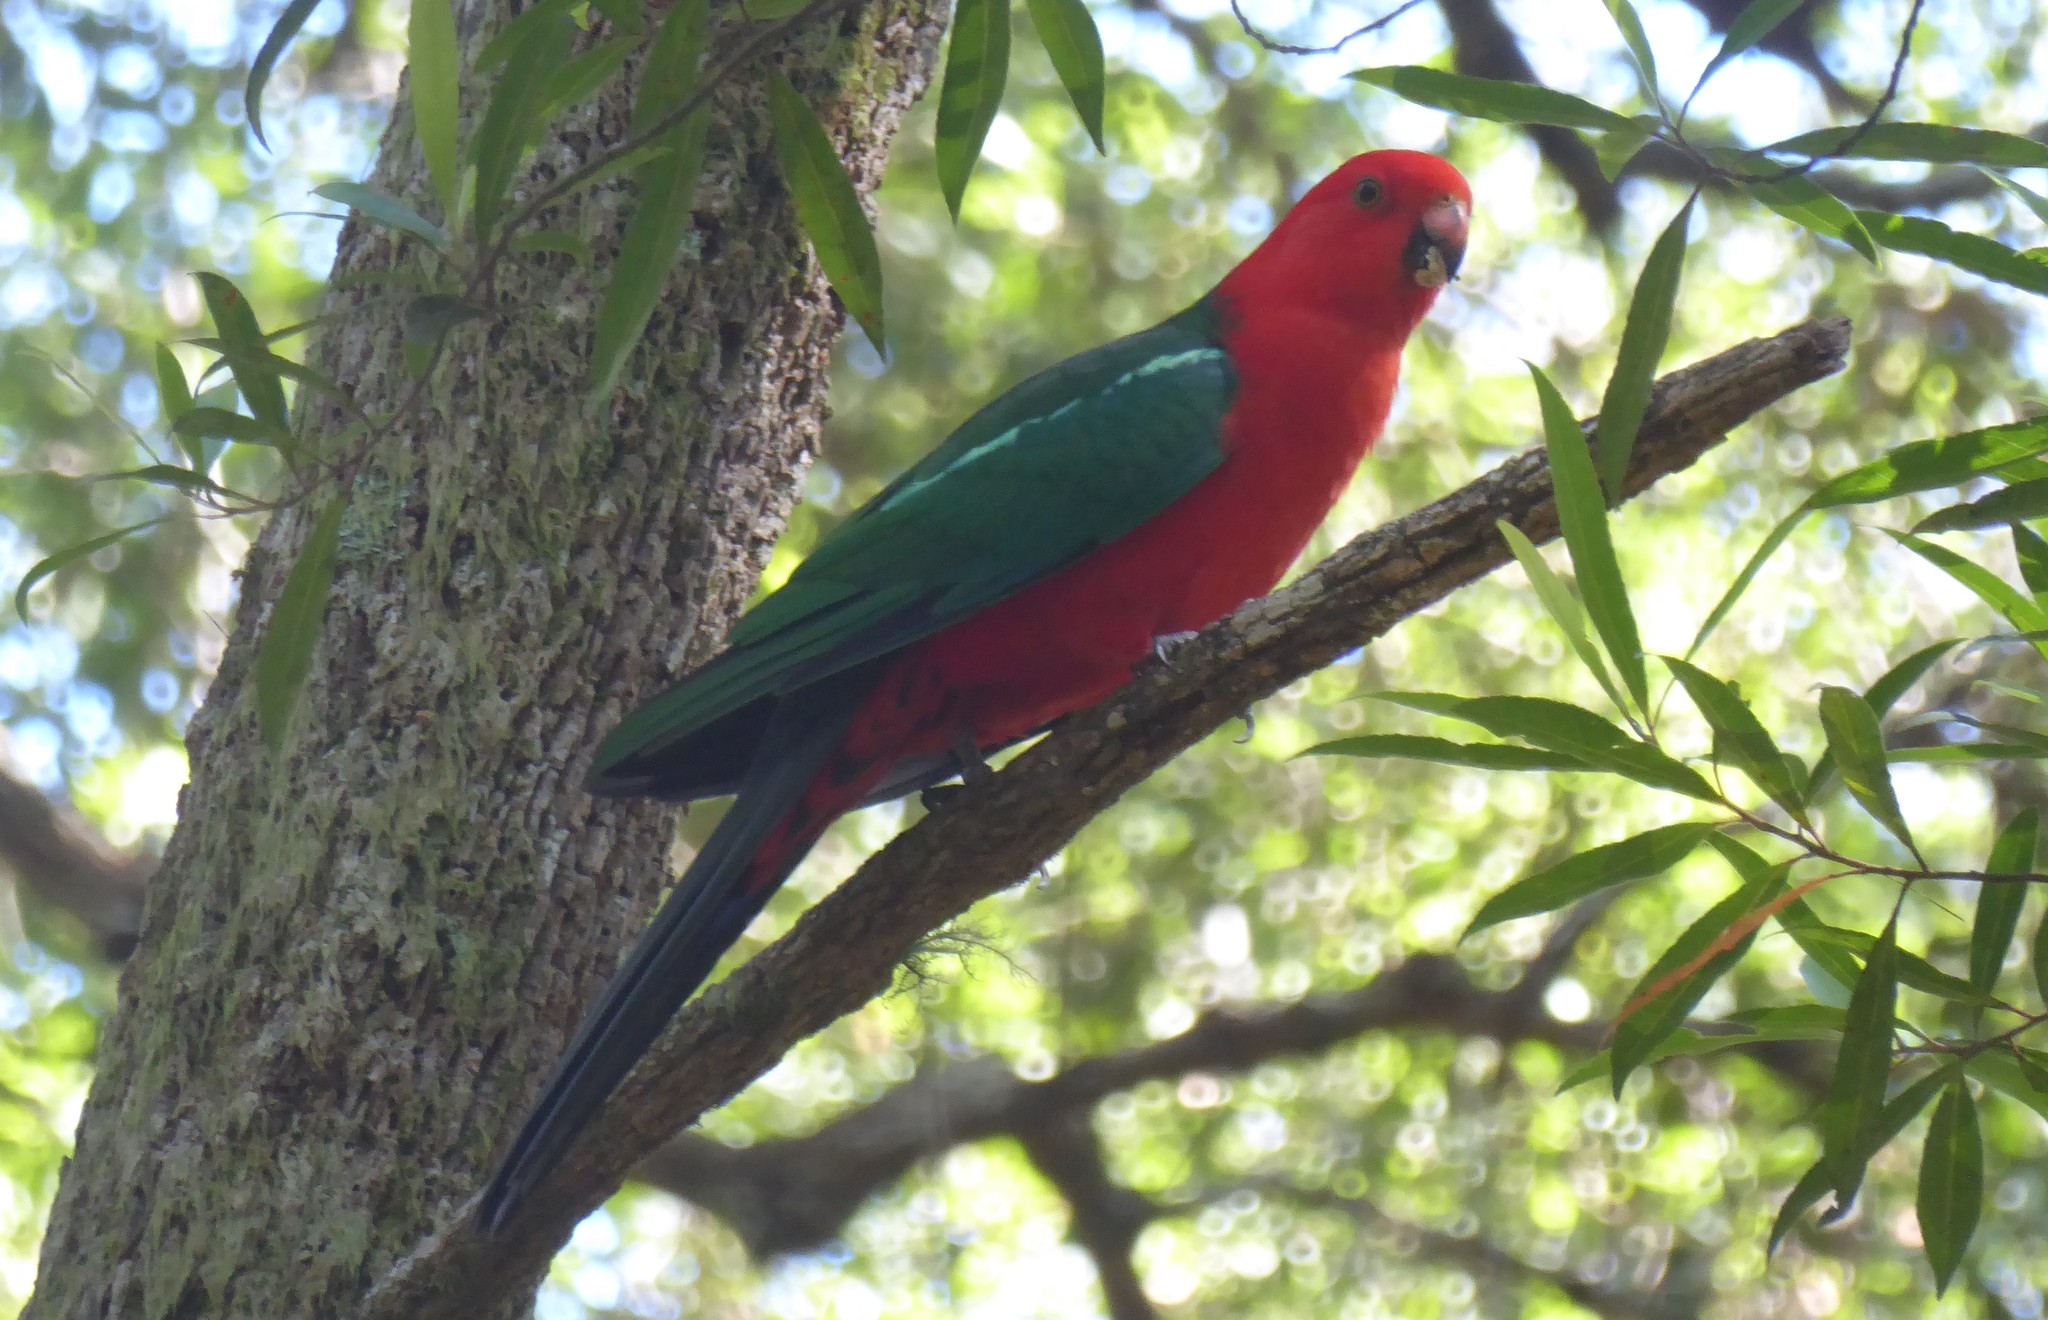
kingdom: Animalia
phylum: Chordata
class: Aves
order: Psittaciformes
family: Psittacidae
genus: Alisterus
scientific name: Alisterus scapularis
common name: Australian king parrot
